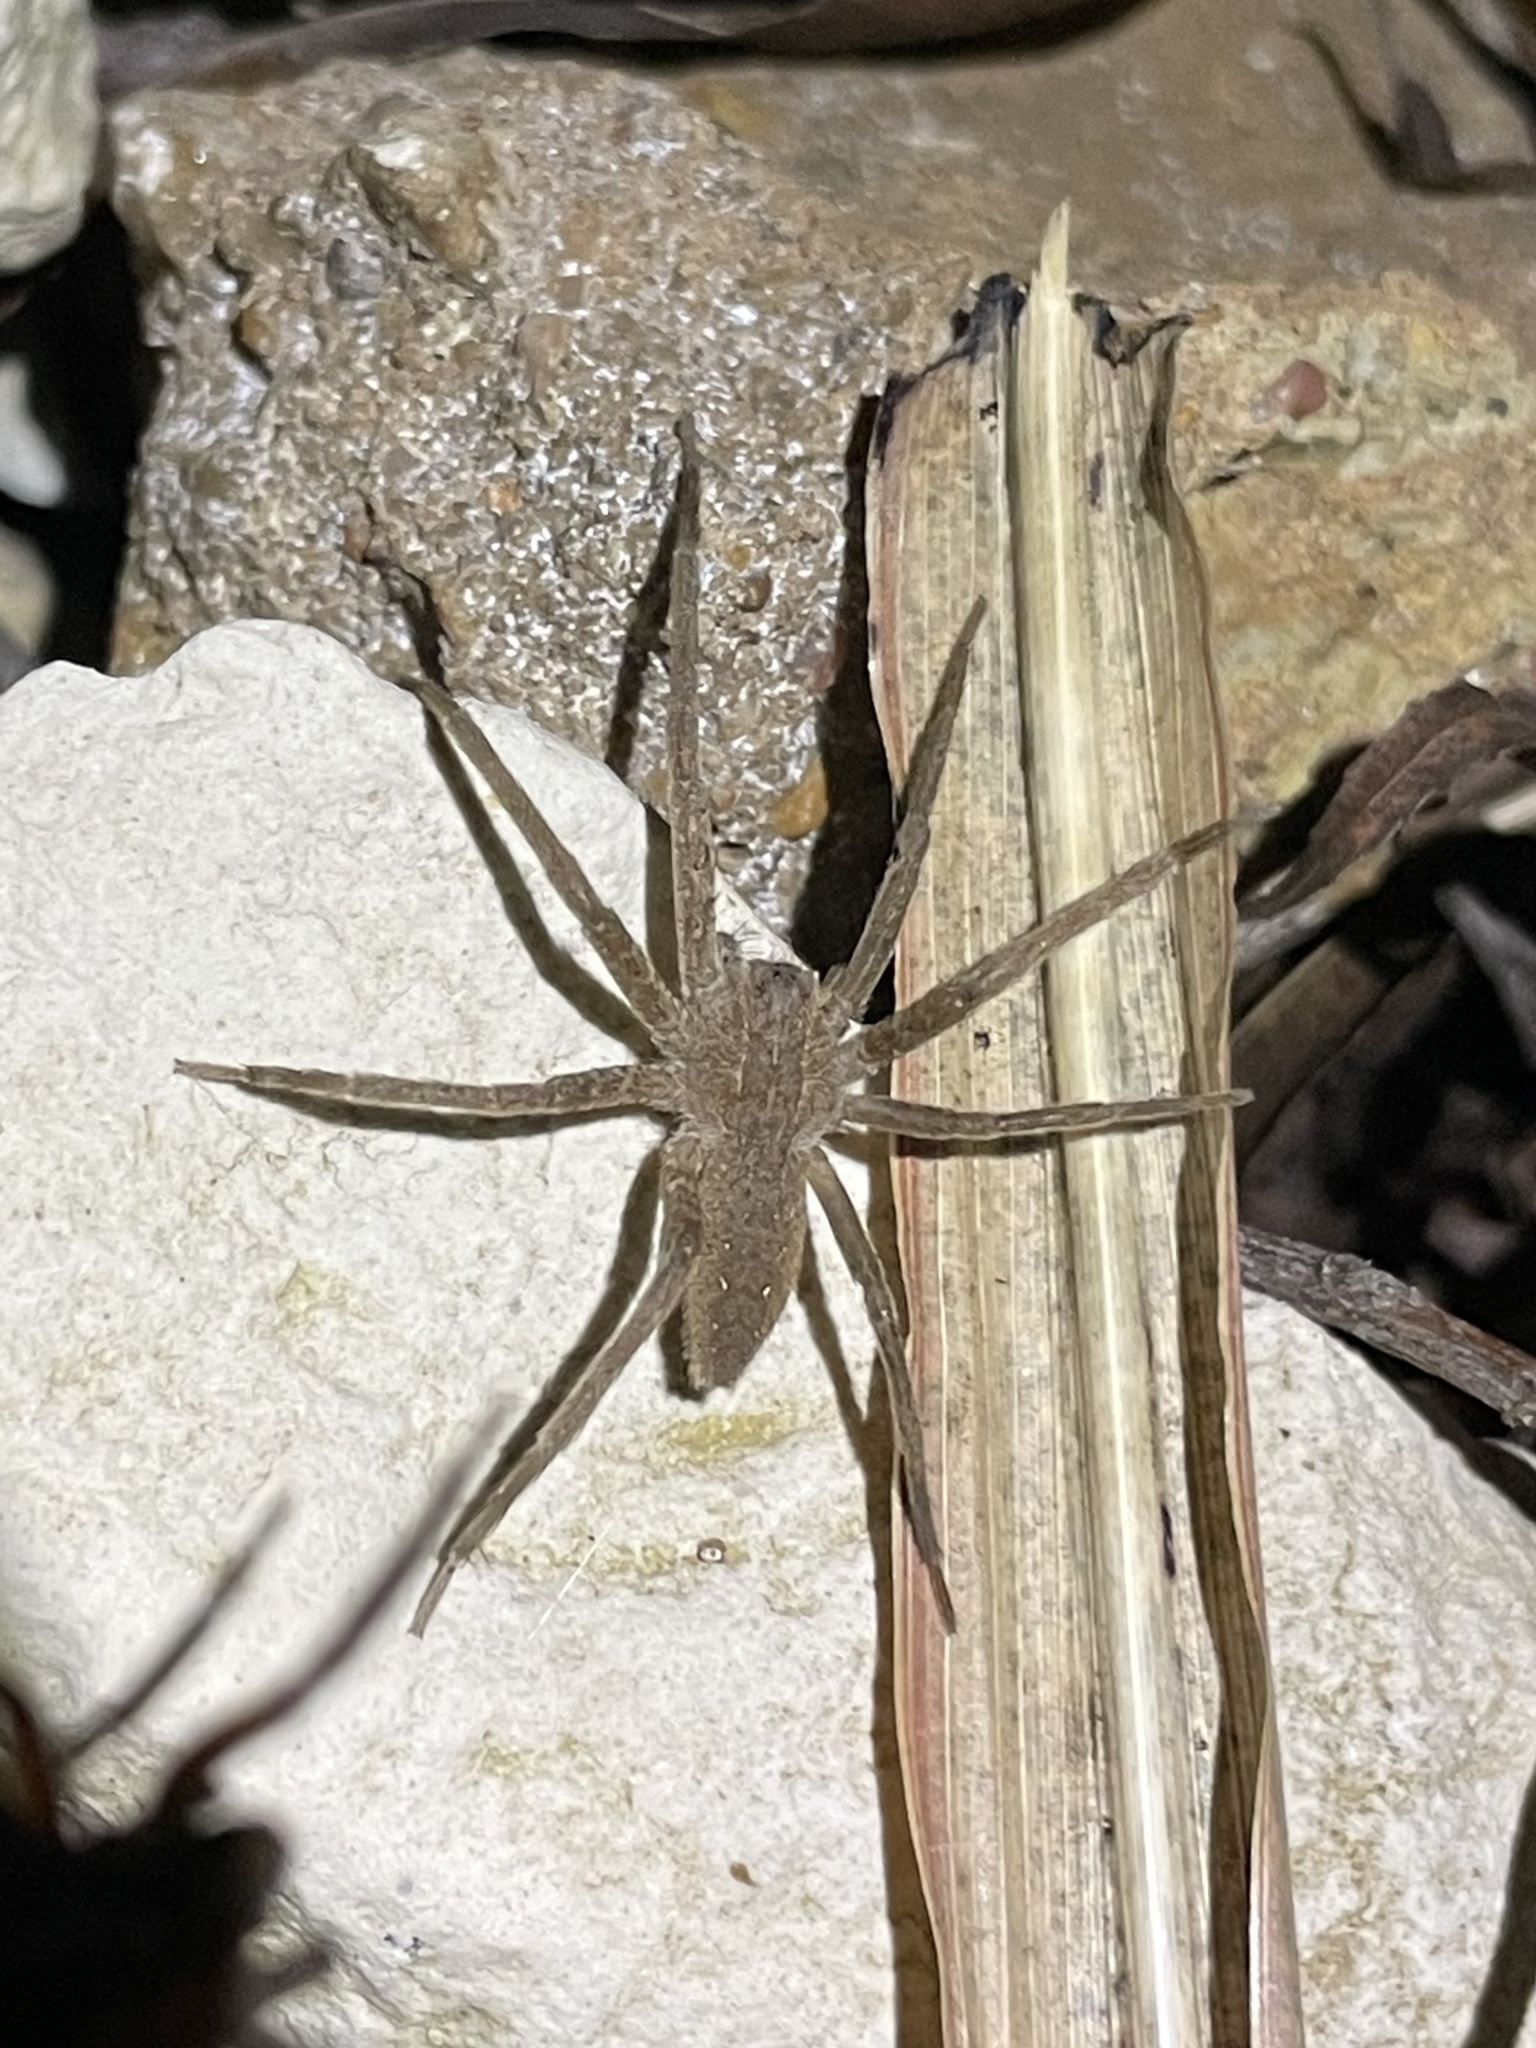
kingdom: Animalia
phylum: Arthropoda
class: Arachnida
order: Araneae
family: Pisauridae
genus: Pisaurina
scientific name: Pisaurina mira
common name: American nursery web spider
